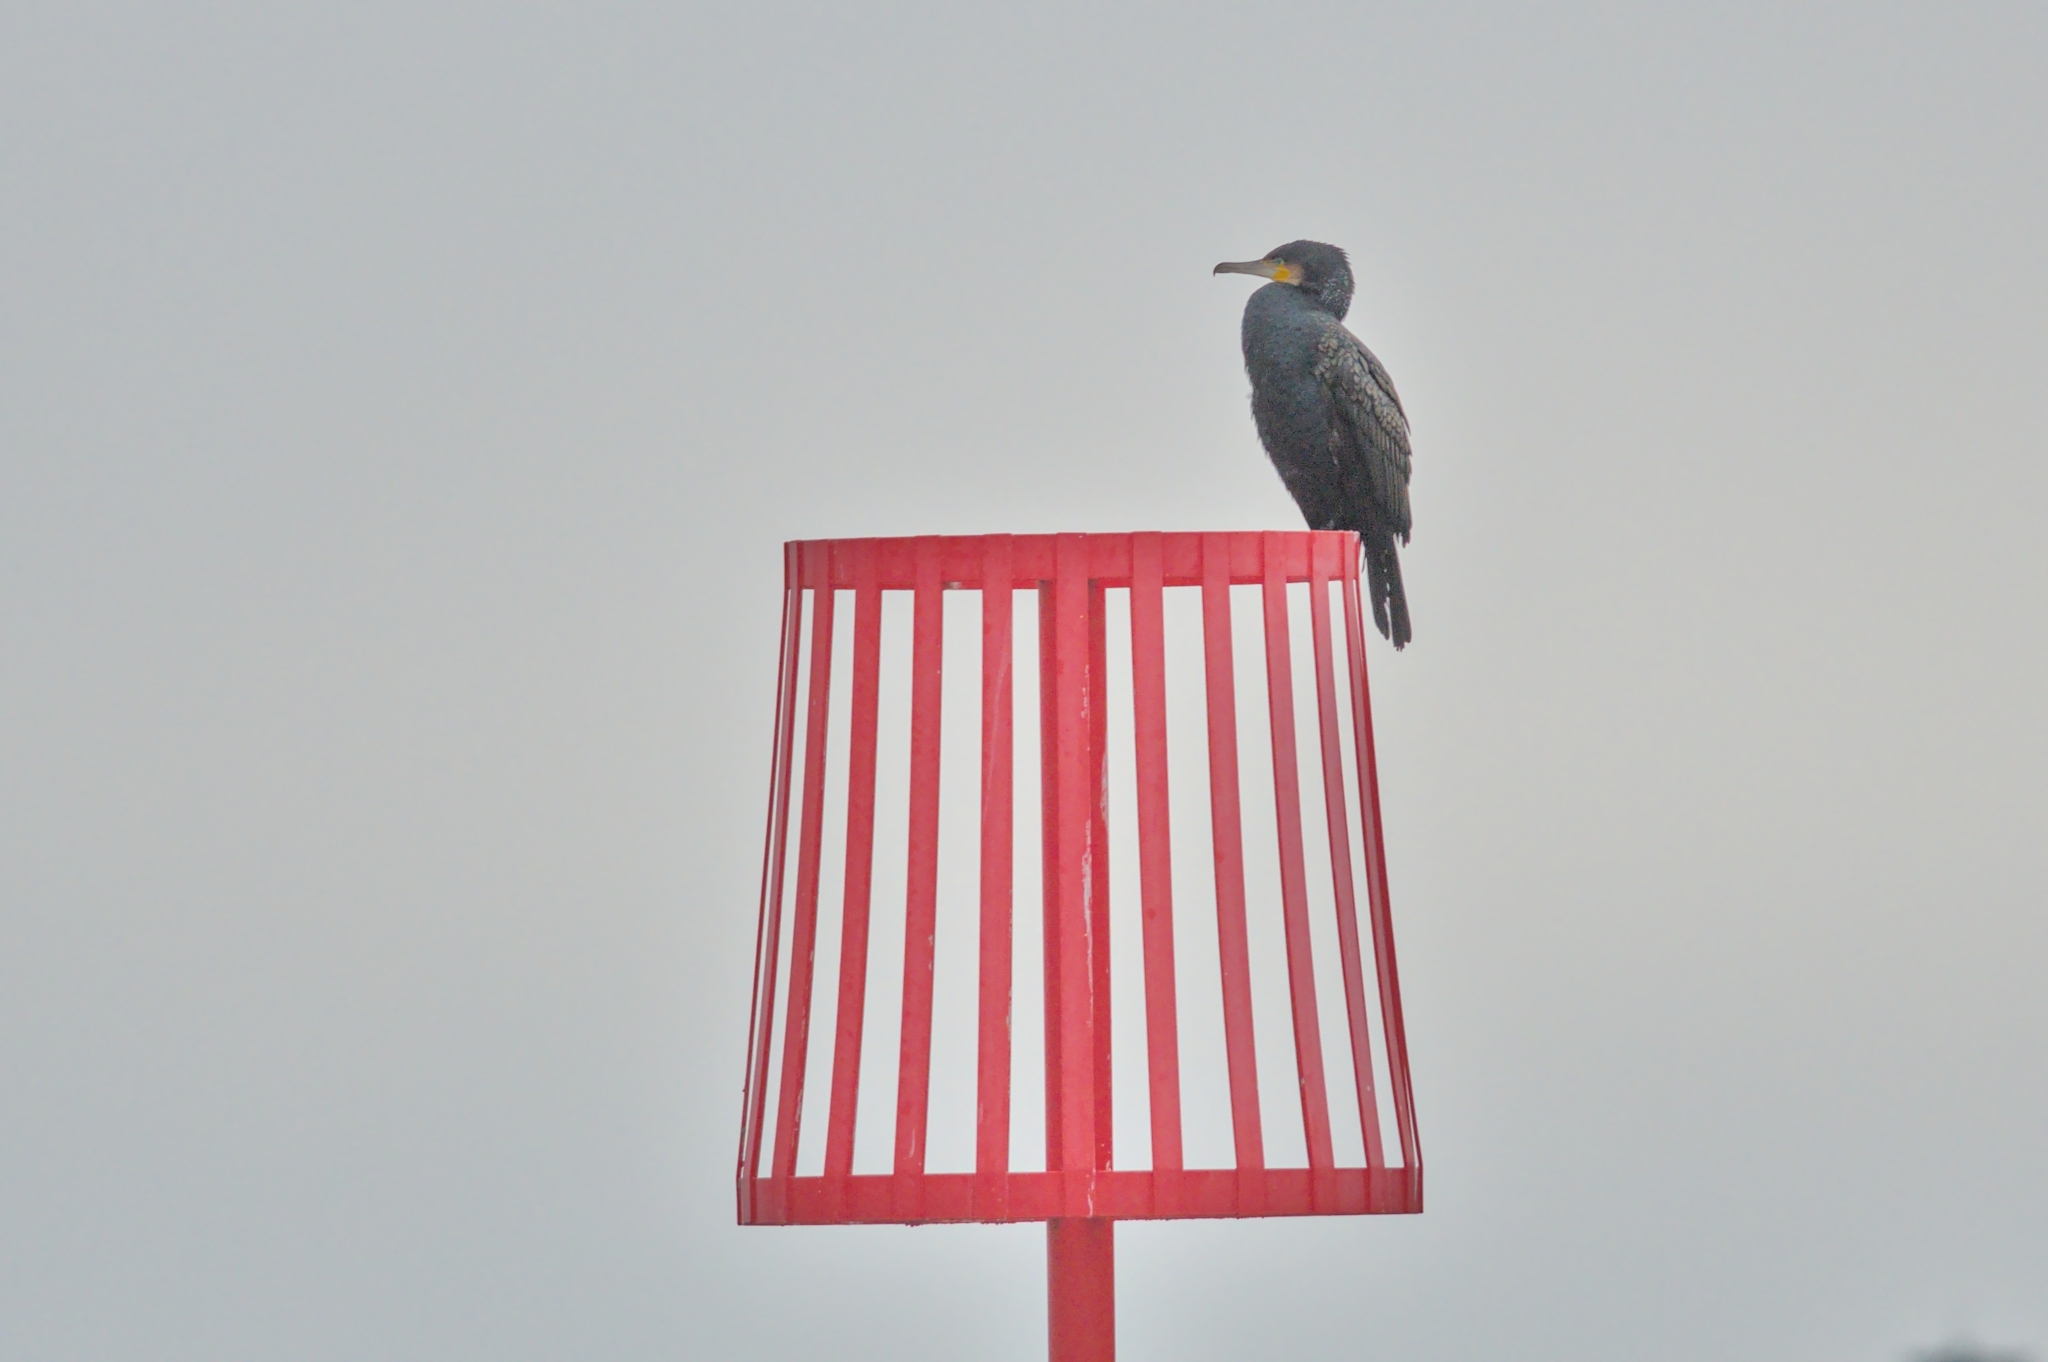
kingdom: Animalia
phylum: Chordata
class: Aves
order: Suliformes
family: Phalacrocoracidae
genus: Phalacrocorax
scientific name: Phalacrocorax carbo
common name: Great cormorant
